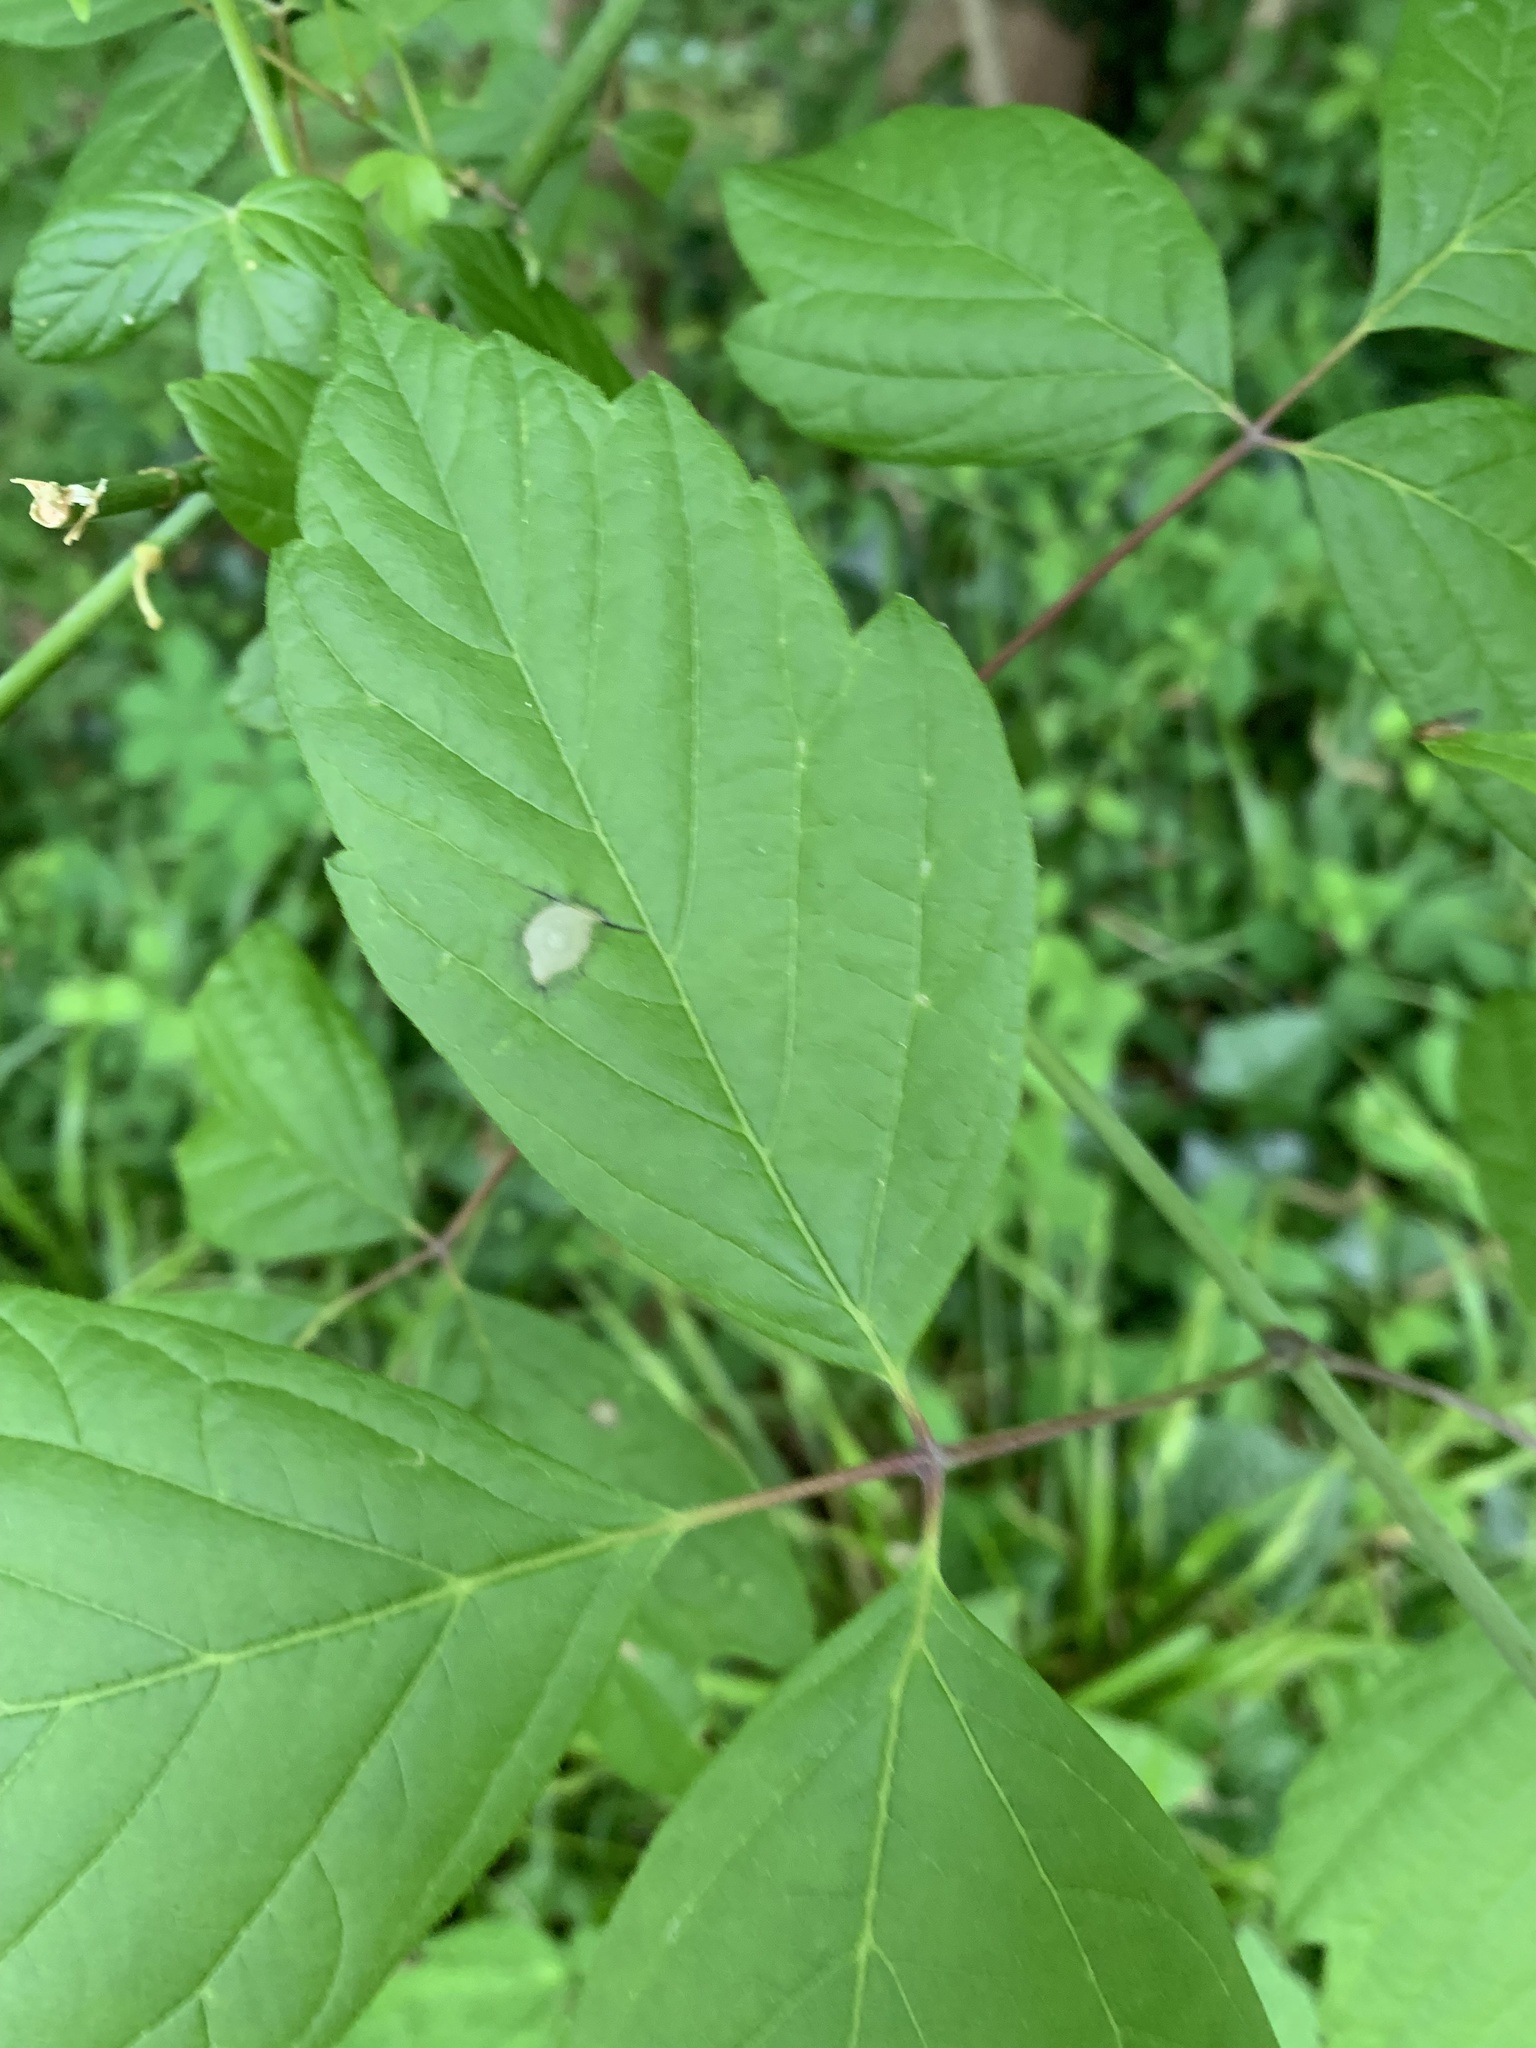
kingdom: Plantae
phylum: Tracheophyta
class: Magnoliopsida
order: Sapindales
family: Sapindaceae
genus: Acer
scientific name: Acer negundo
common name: Ashleaf maple
